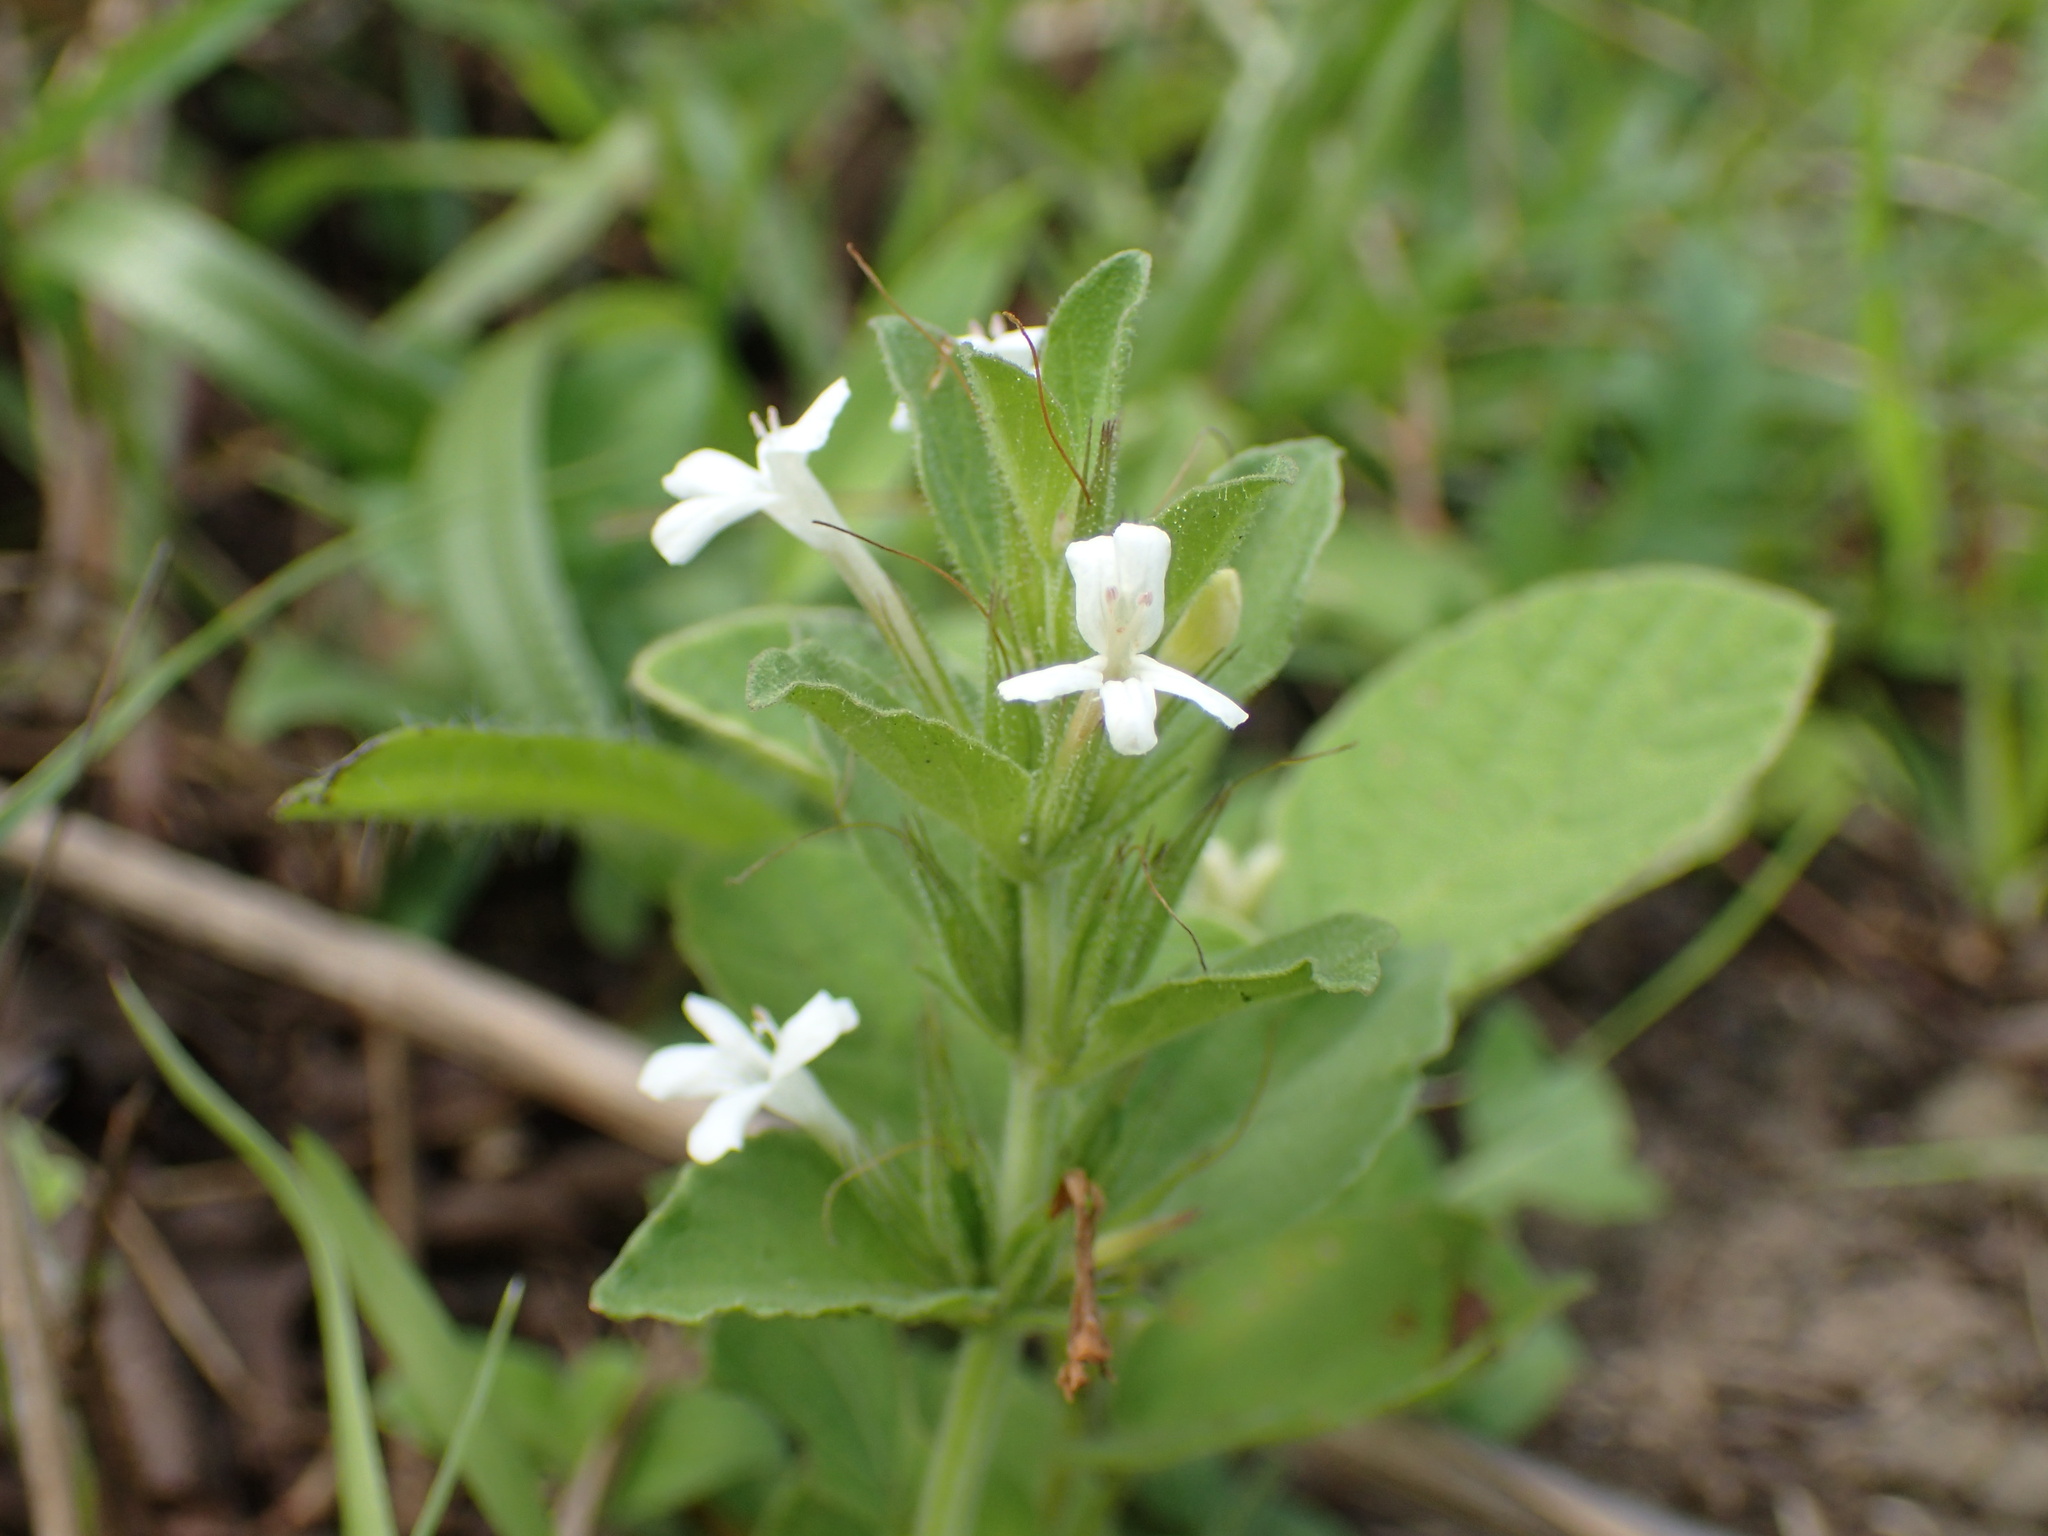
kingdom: Plantae
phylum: Tracheophyta
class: Magnoliopsida
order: Lamiales
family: Acanthaceae
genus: Dyschoriste
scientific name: Dyschoriste radicans
